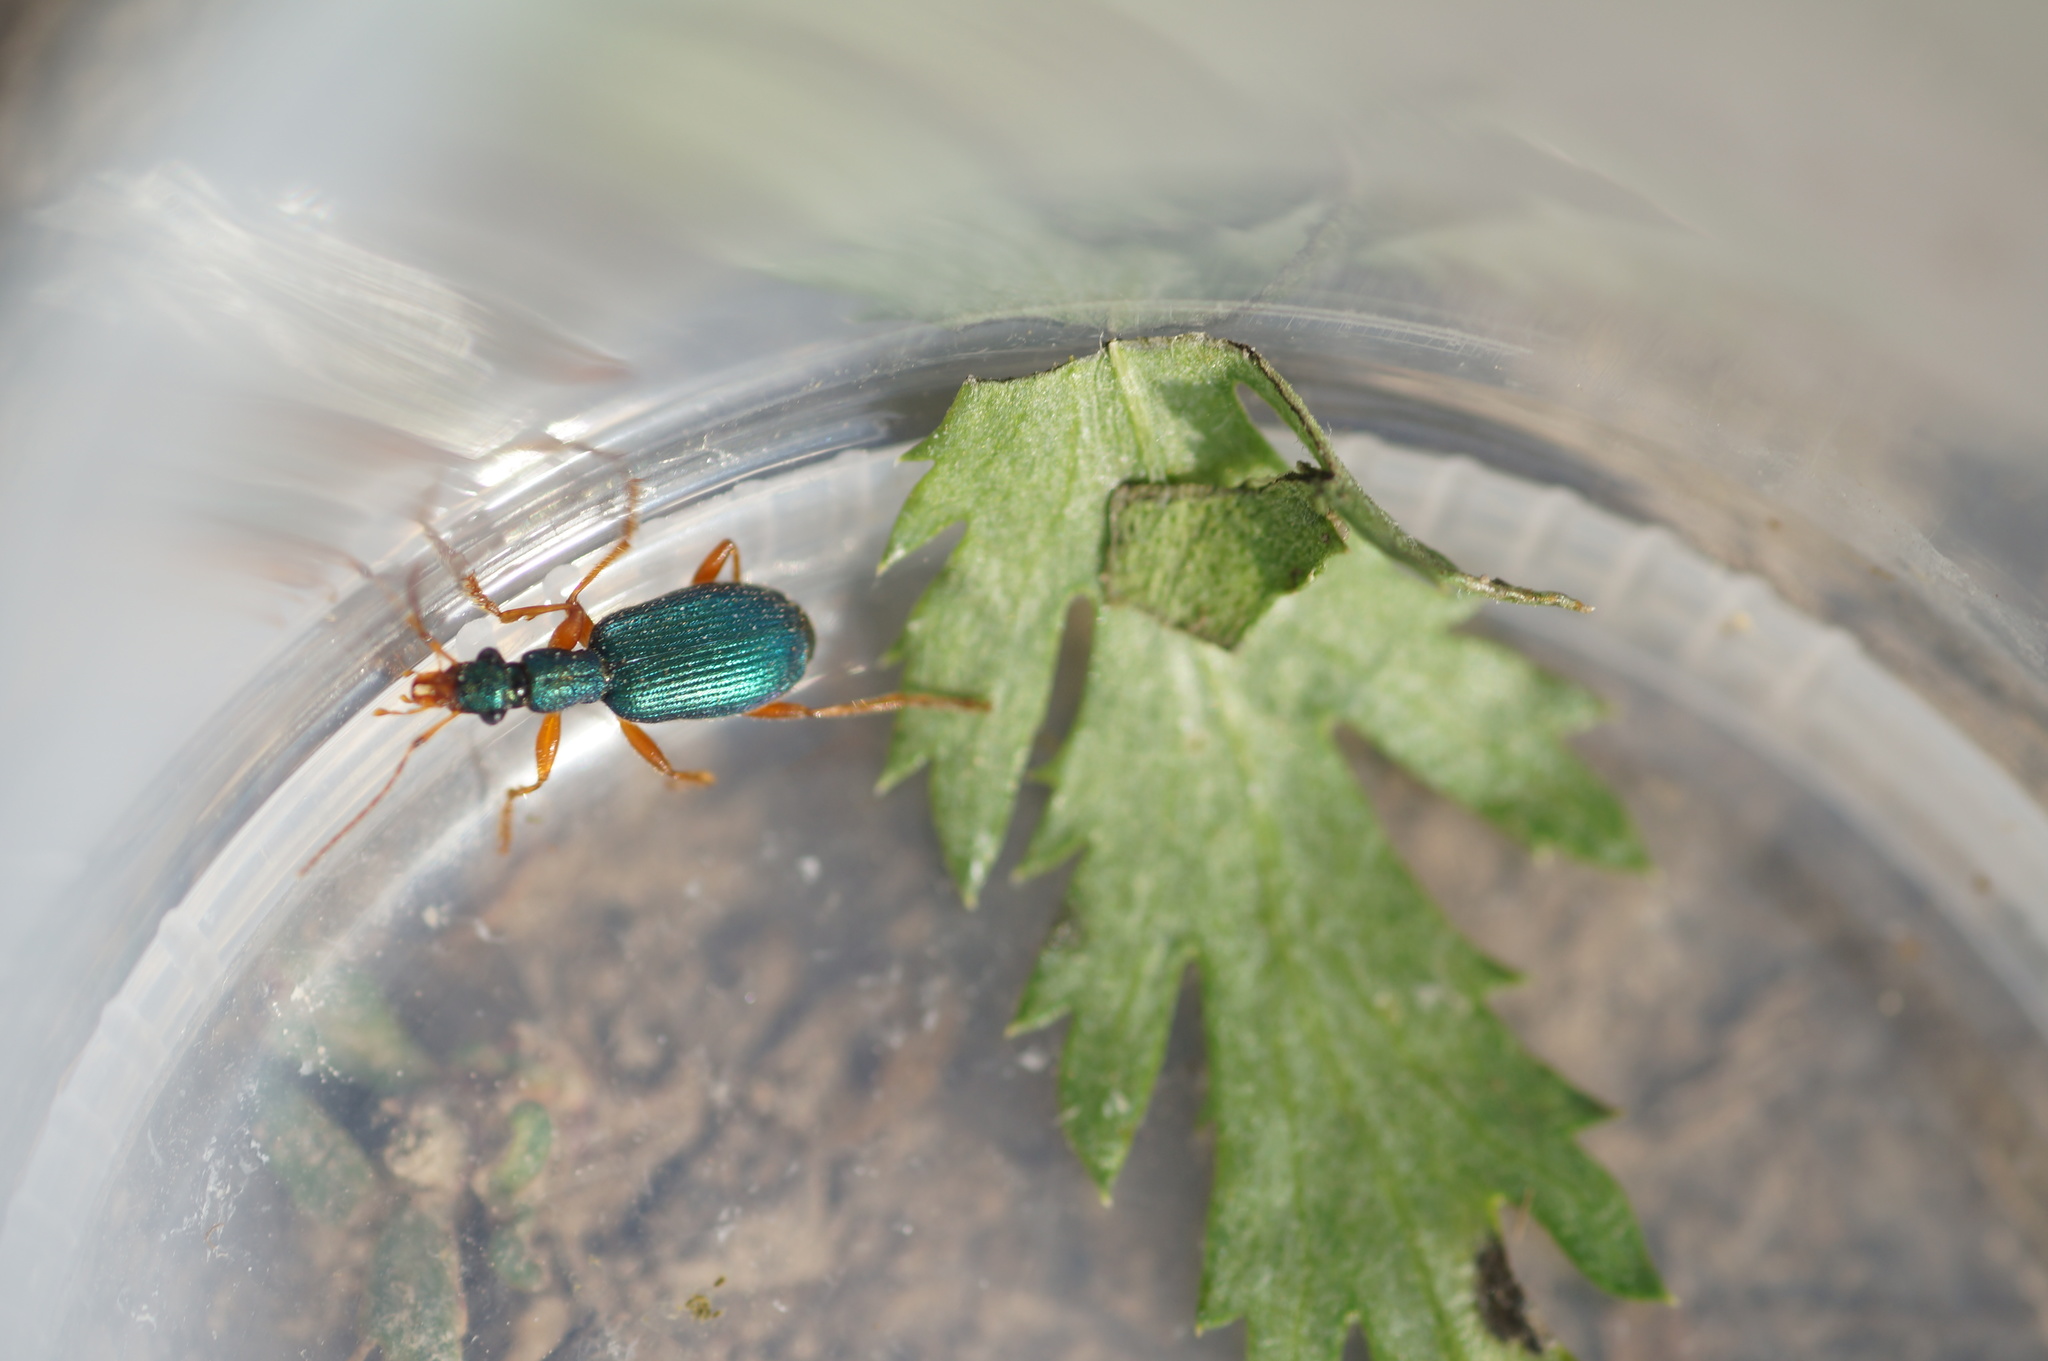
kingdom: Animalia
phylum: Arthropoda
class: Insecta
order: Coleoptera
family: Carabidae
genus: Drypta
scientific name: Drypta dentata
